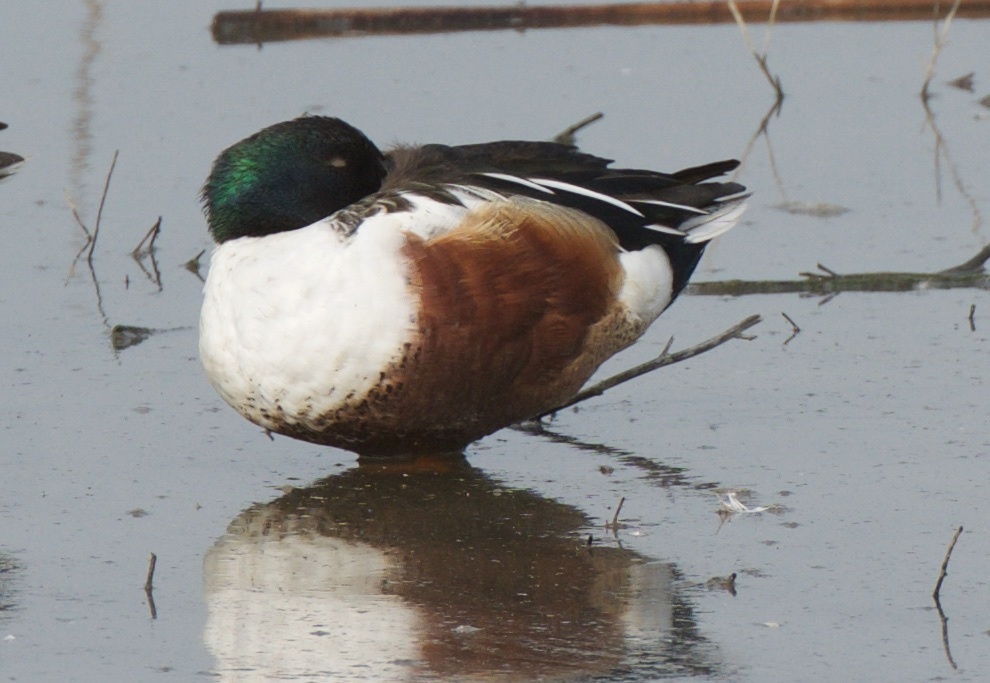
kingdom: Animalia
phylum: Chordata
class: Aves
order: Anseriformes
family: Anatidae
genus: Spatula
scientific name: Spatula clypeata
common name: Northern shoveler
